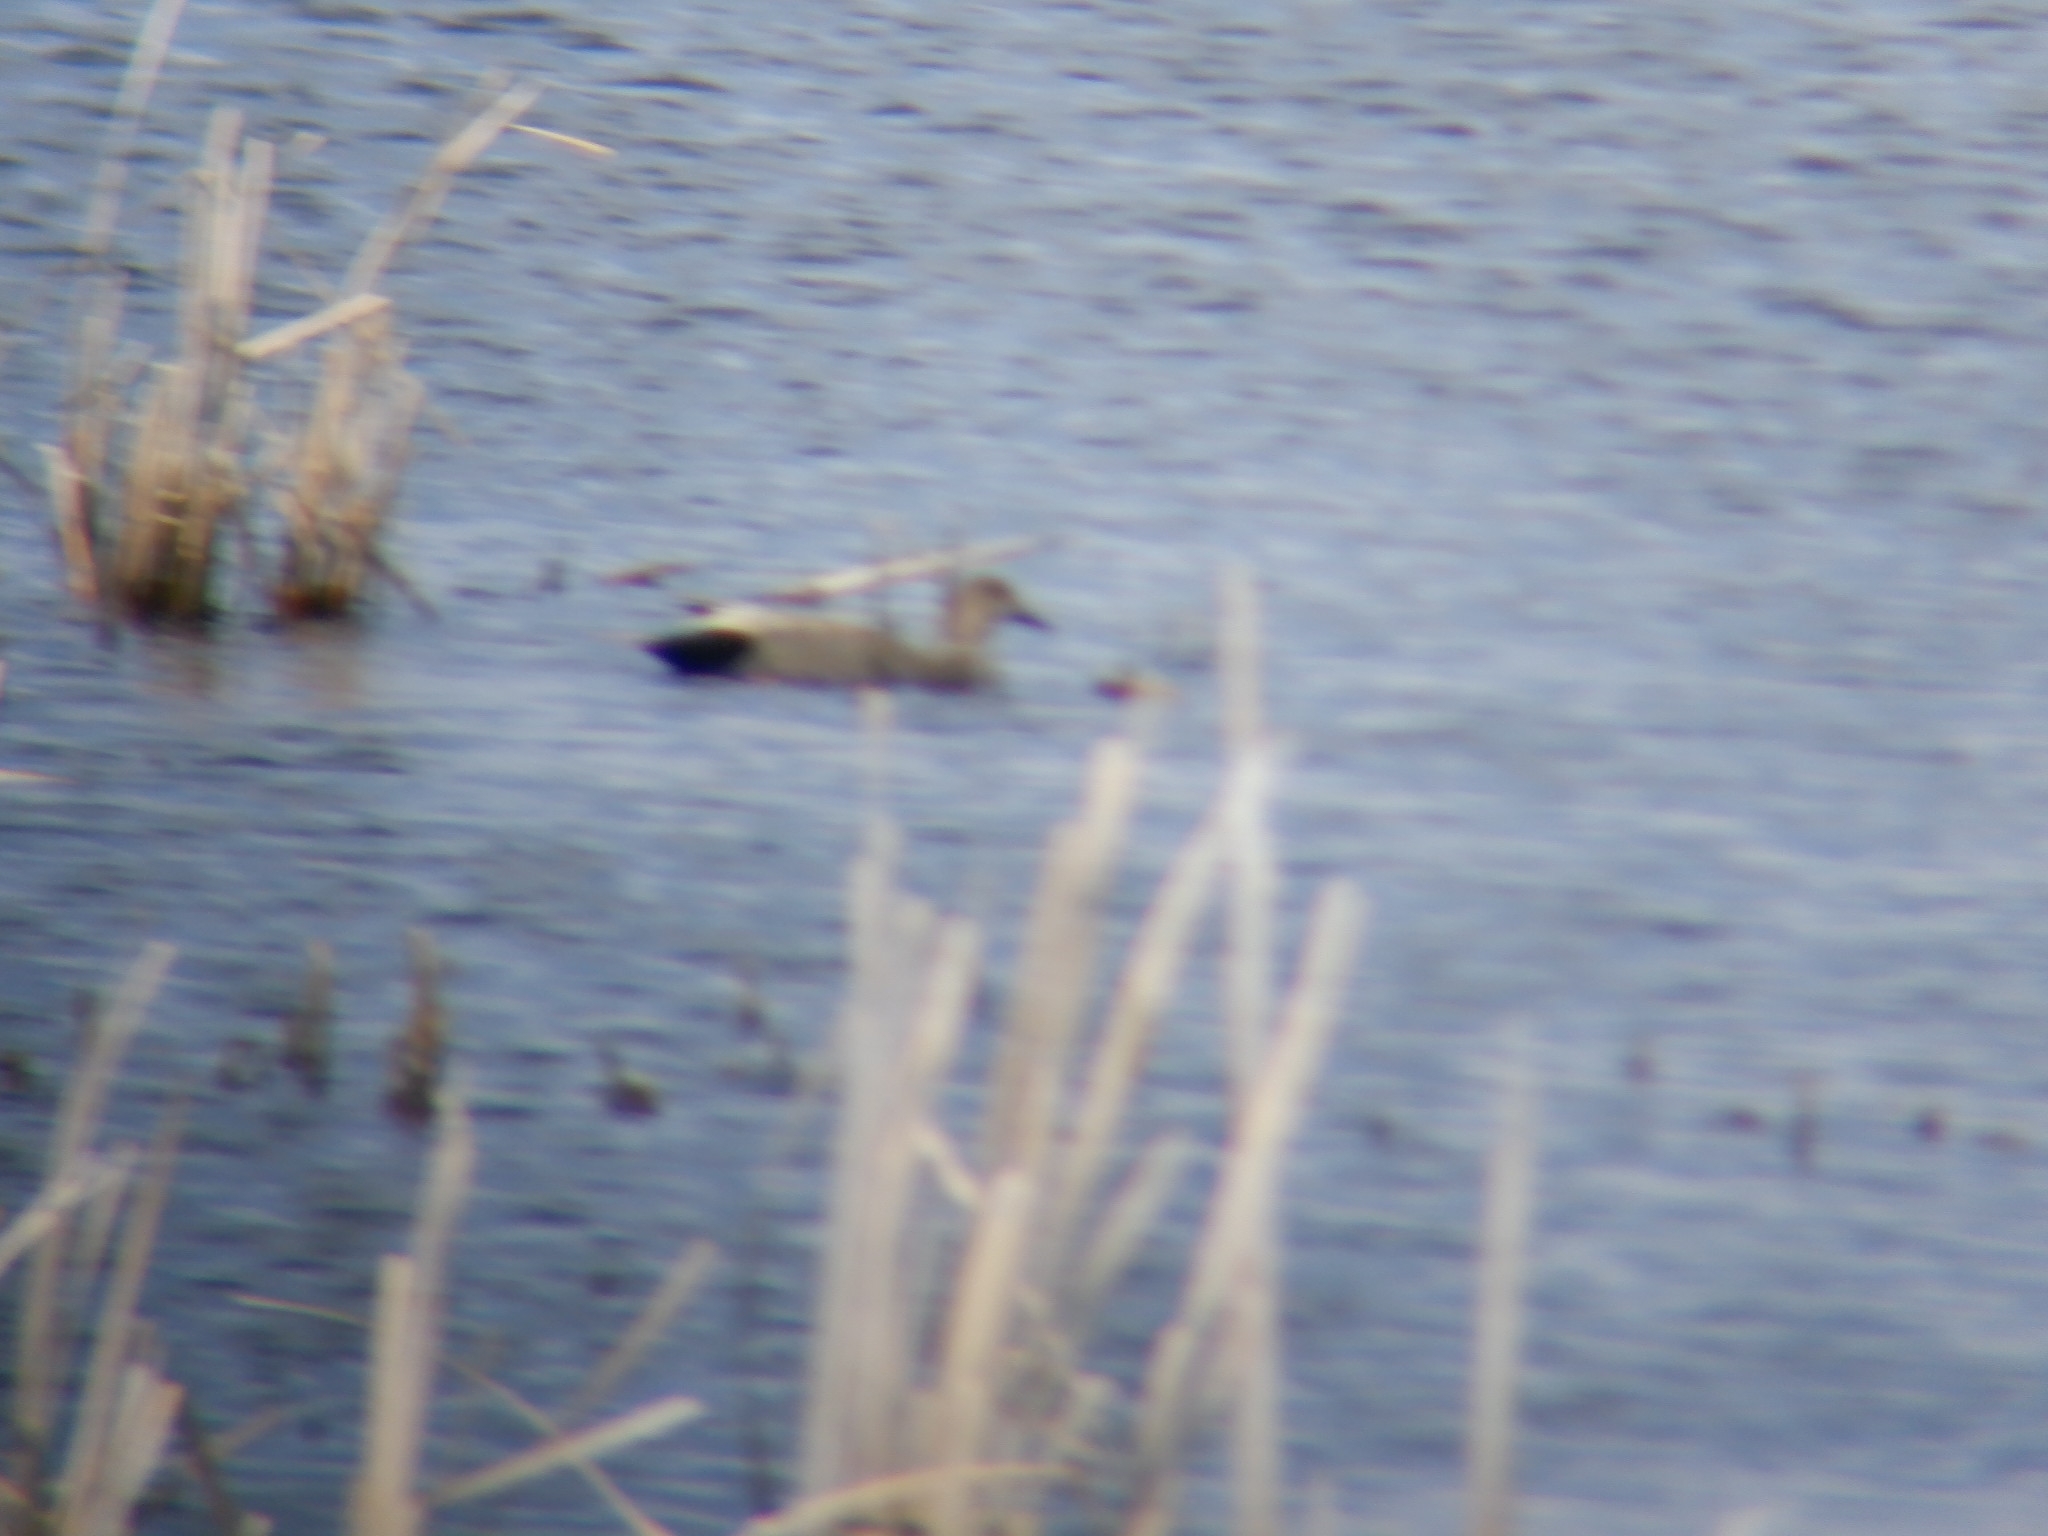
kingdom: Animalia
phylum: Chordata
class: Aves
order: Anseriformes
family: Anatidae
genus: Mareca
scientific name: Mareca strepera
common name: Gadwall
